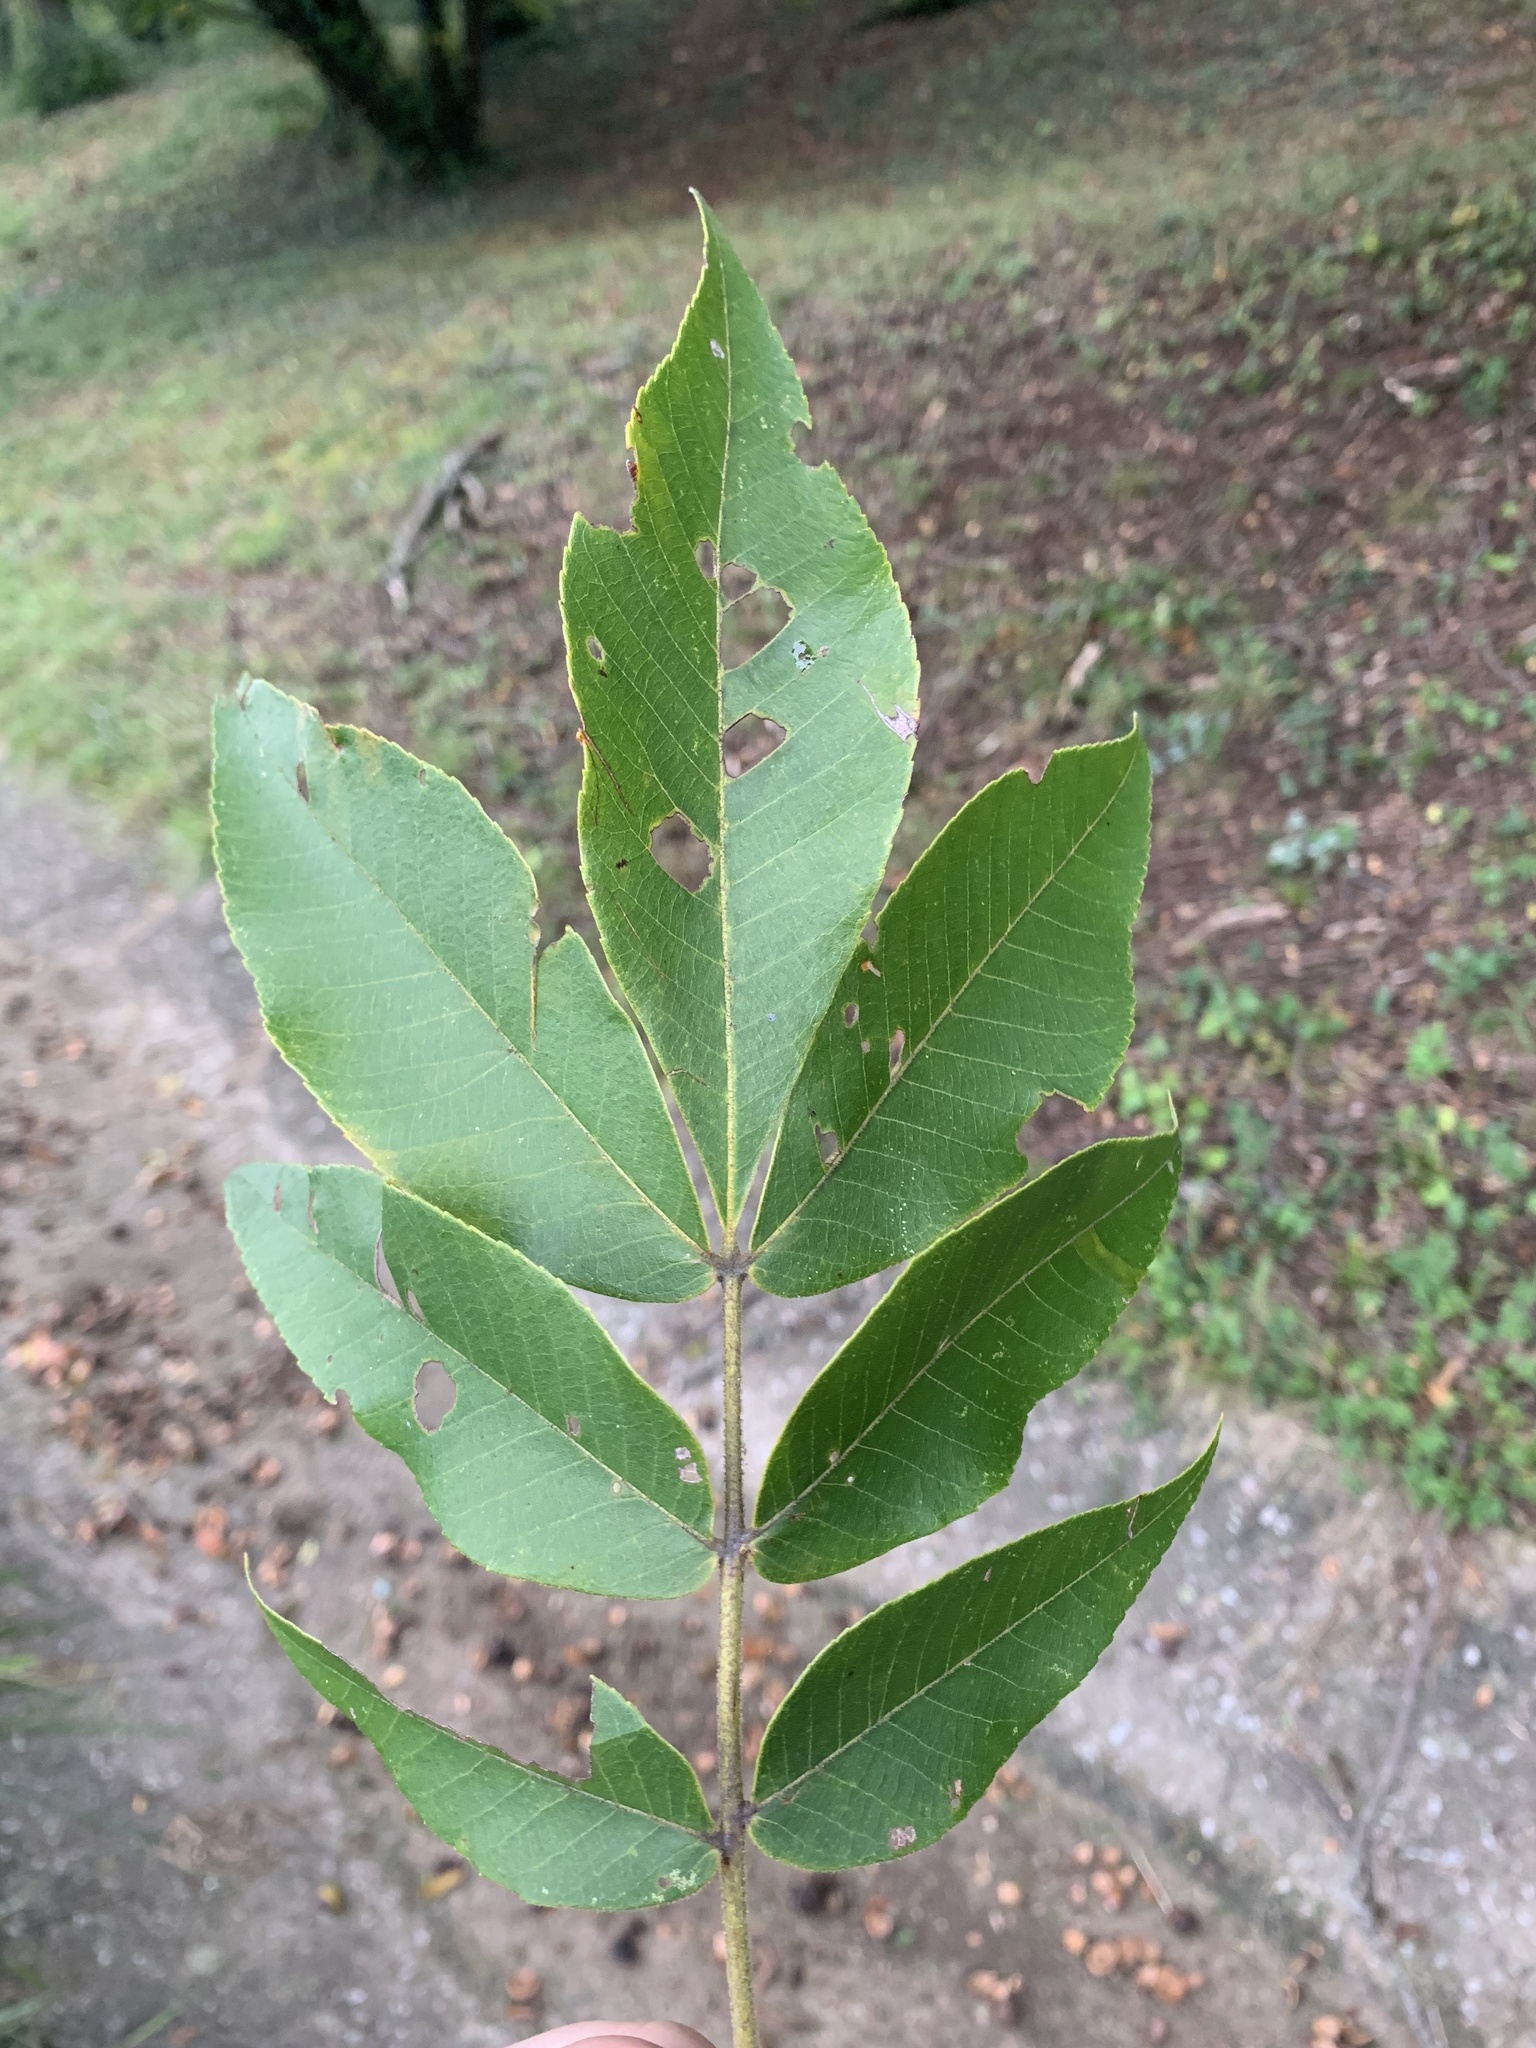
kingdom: Plantae
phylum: Tracheophyta
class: Magnoliopsida
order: Fagales
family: Juglandaceae
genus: Carya
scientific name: Carya alba
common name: Mockernut hickory
